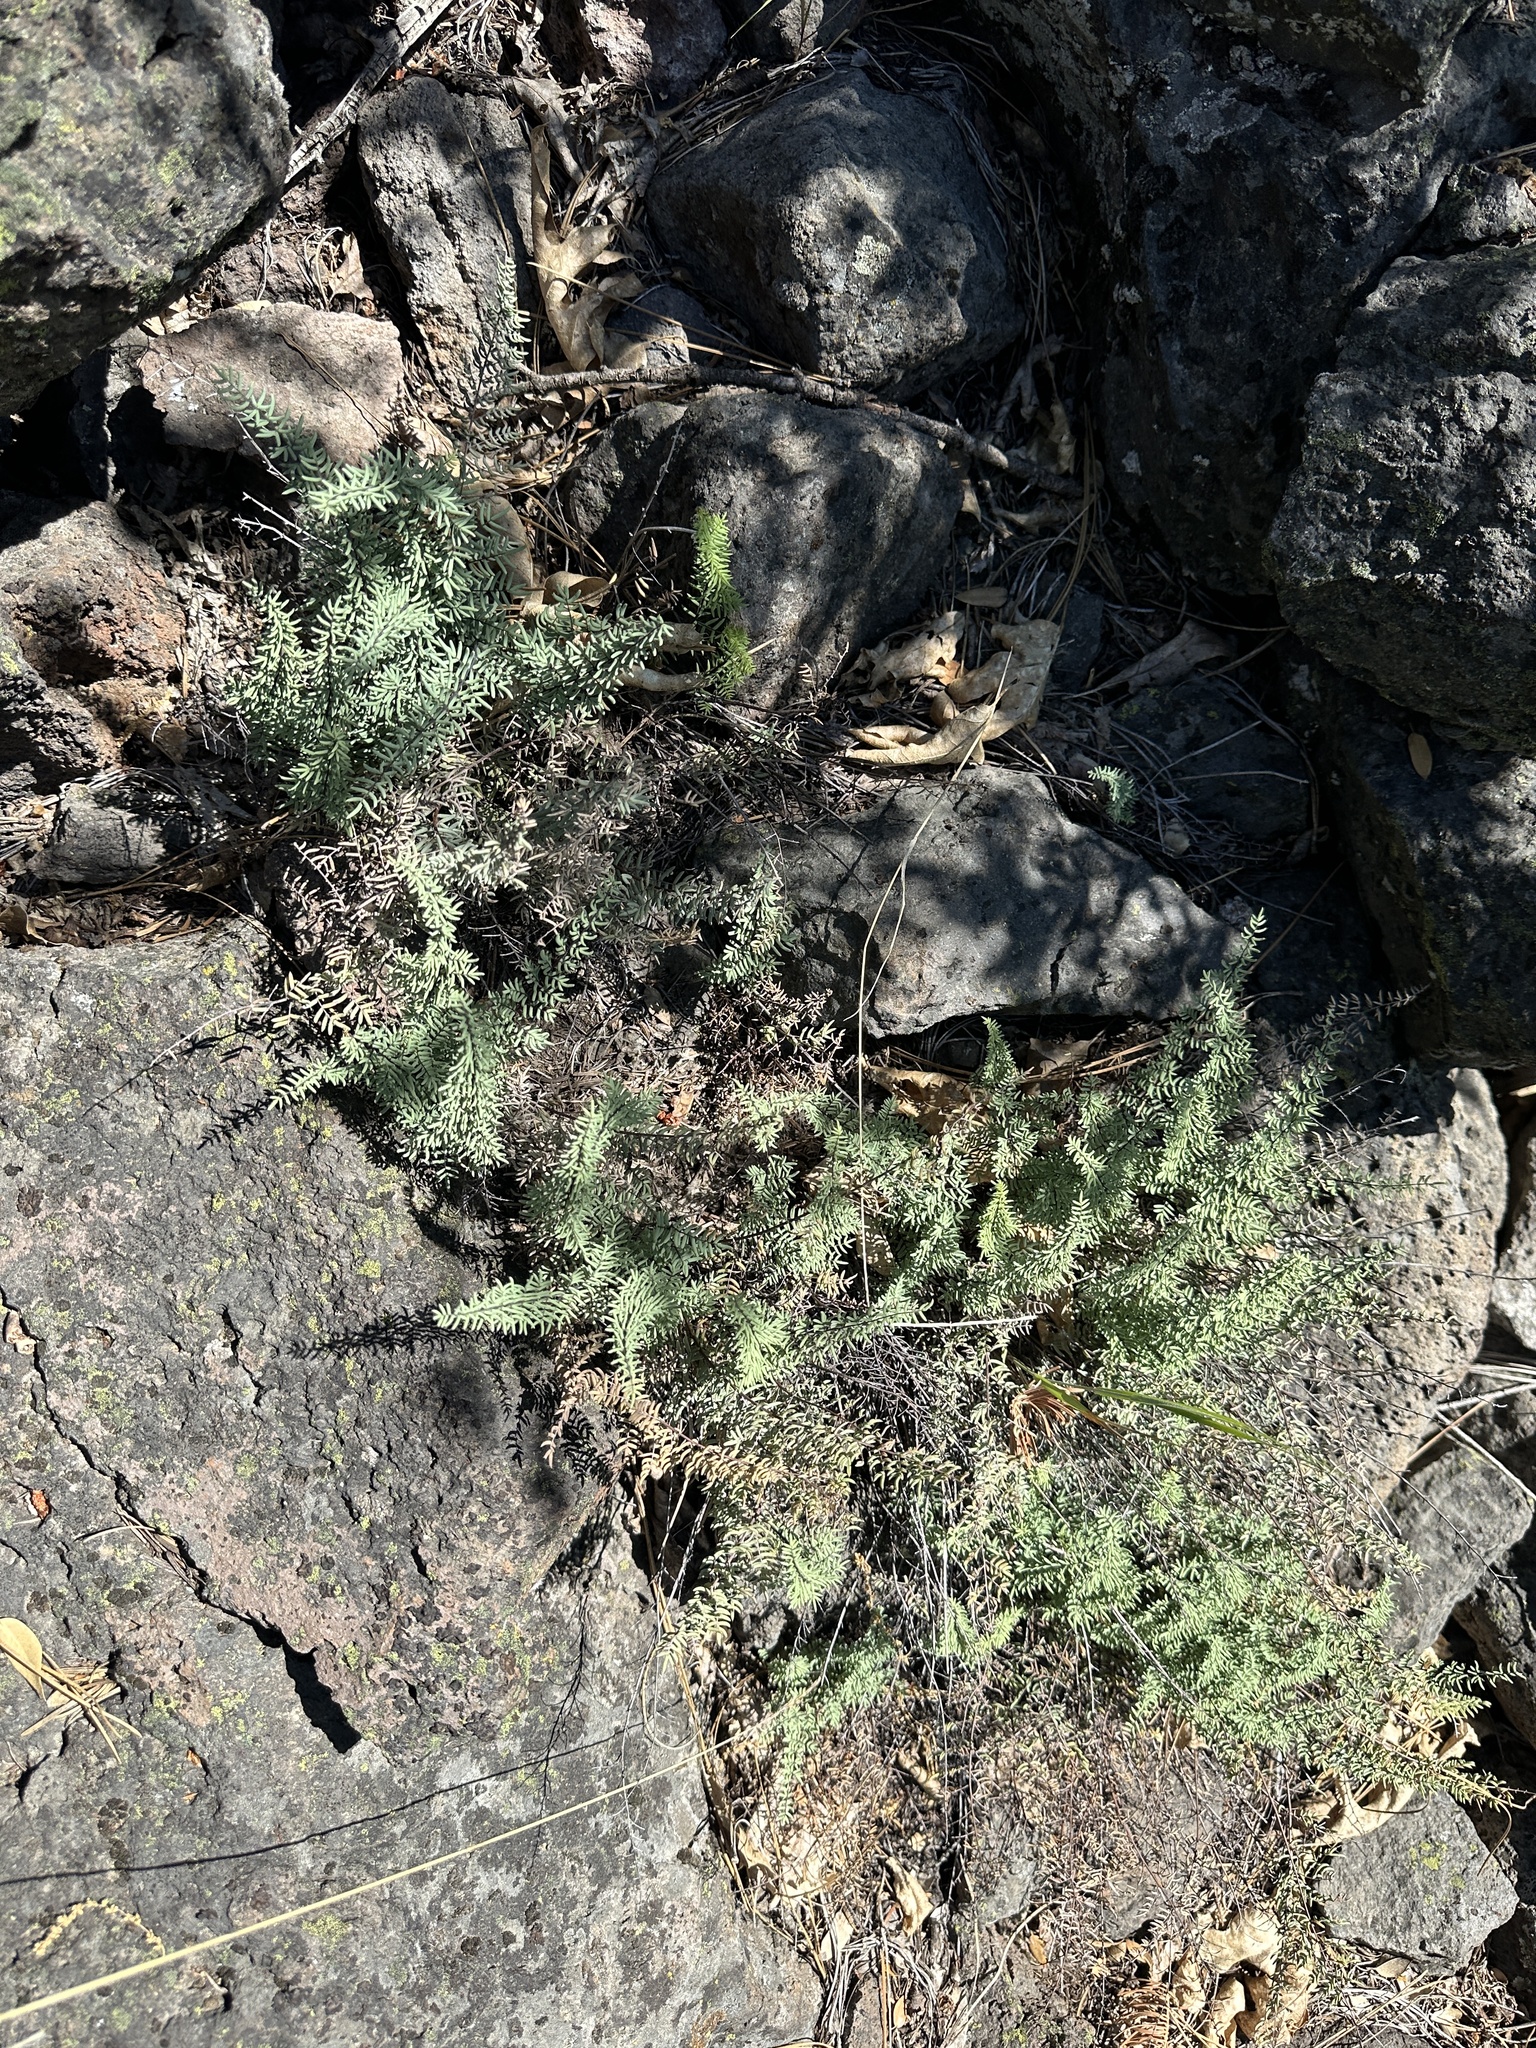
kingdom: Plantae
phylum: Tracheophyta
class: Polypodiopsida
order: Polypodiales
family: Pteridaceae
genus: Pellaea
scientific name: Pellaea brachyptera
